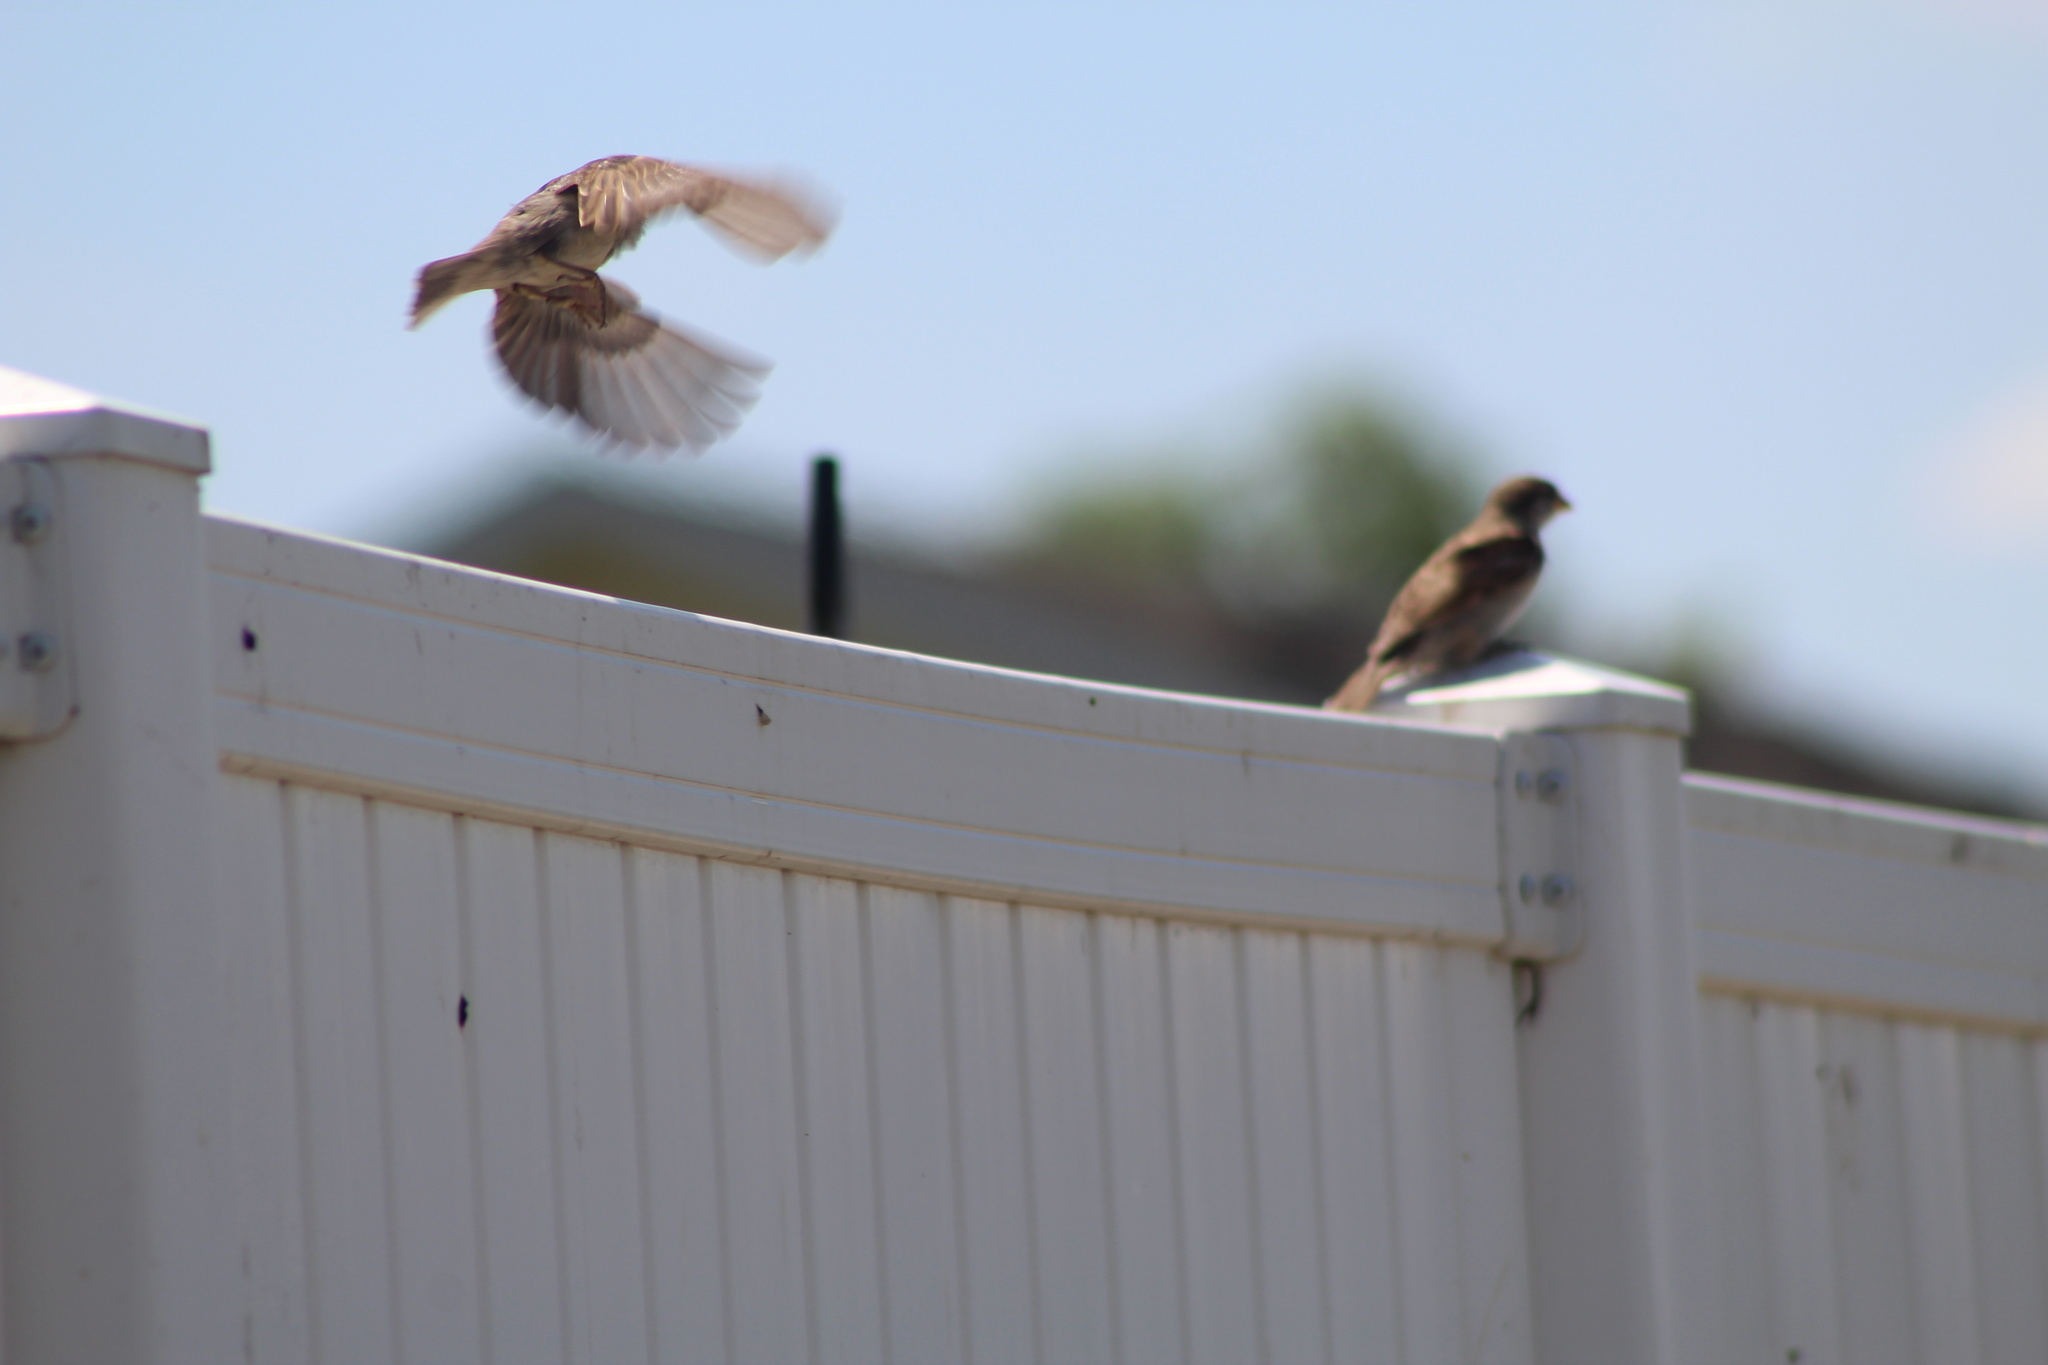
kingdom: Animalia
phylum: Chordata
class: Aves
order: Passeriformes
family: Passeridae
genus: Passer
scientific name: Passer domesticus
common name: House sparrow
